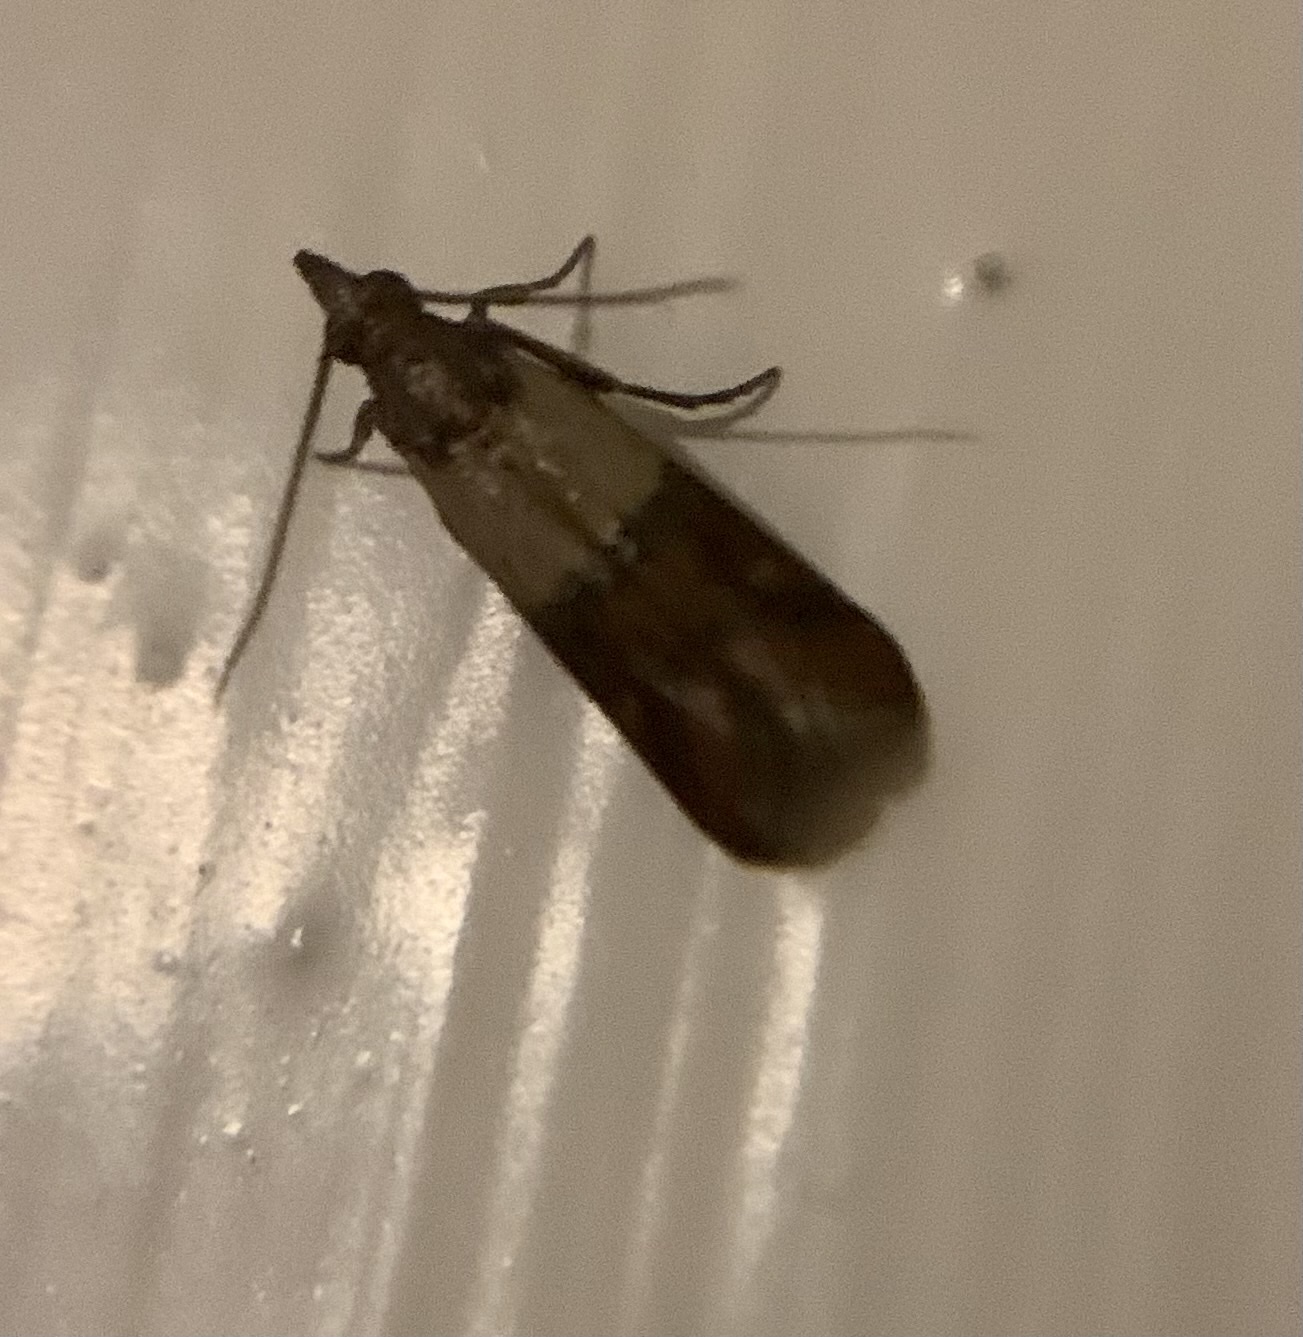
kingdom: Animalia
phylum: Arthropoda
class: Insecta
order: Lepidoptera
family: Pyralidae
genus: Plodia
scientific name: Plodia interpunctella
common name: Indian meal moth
